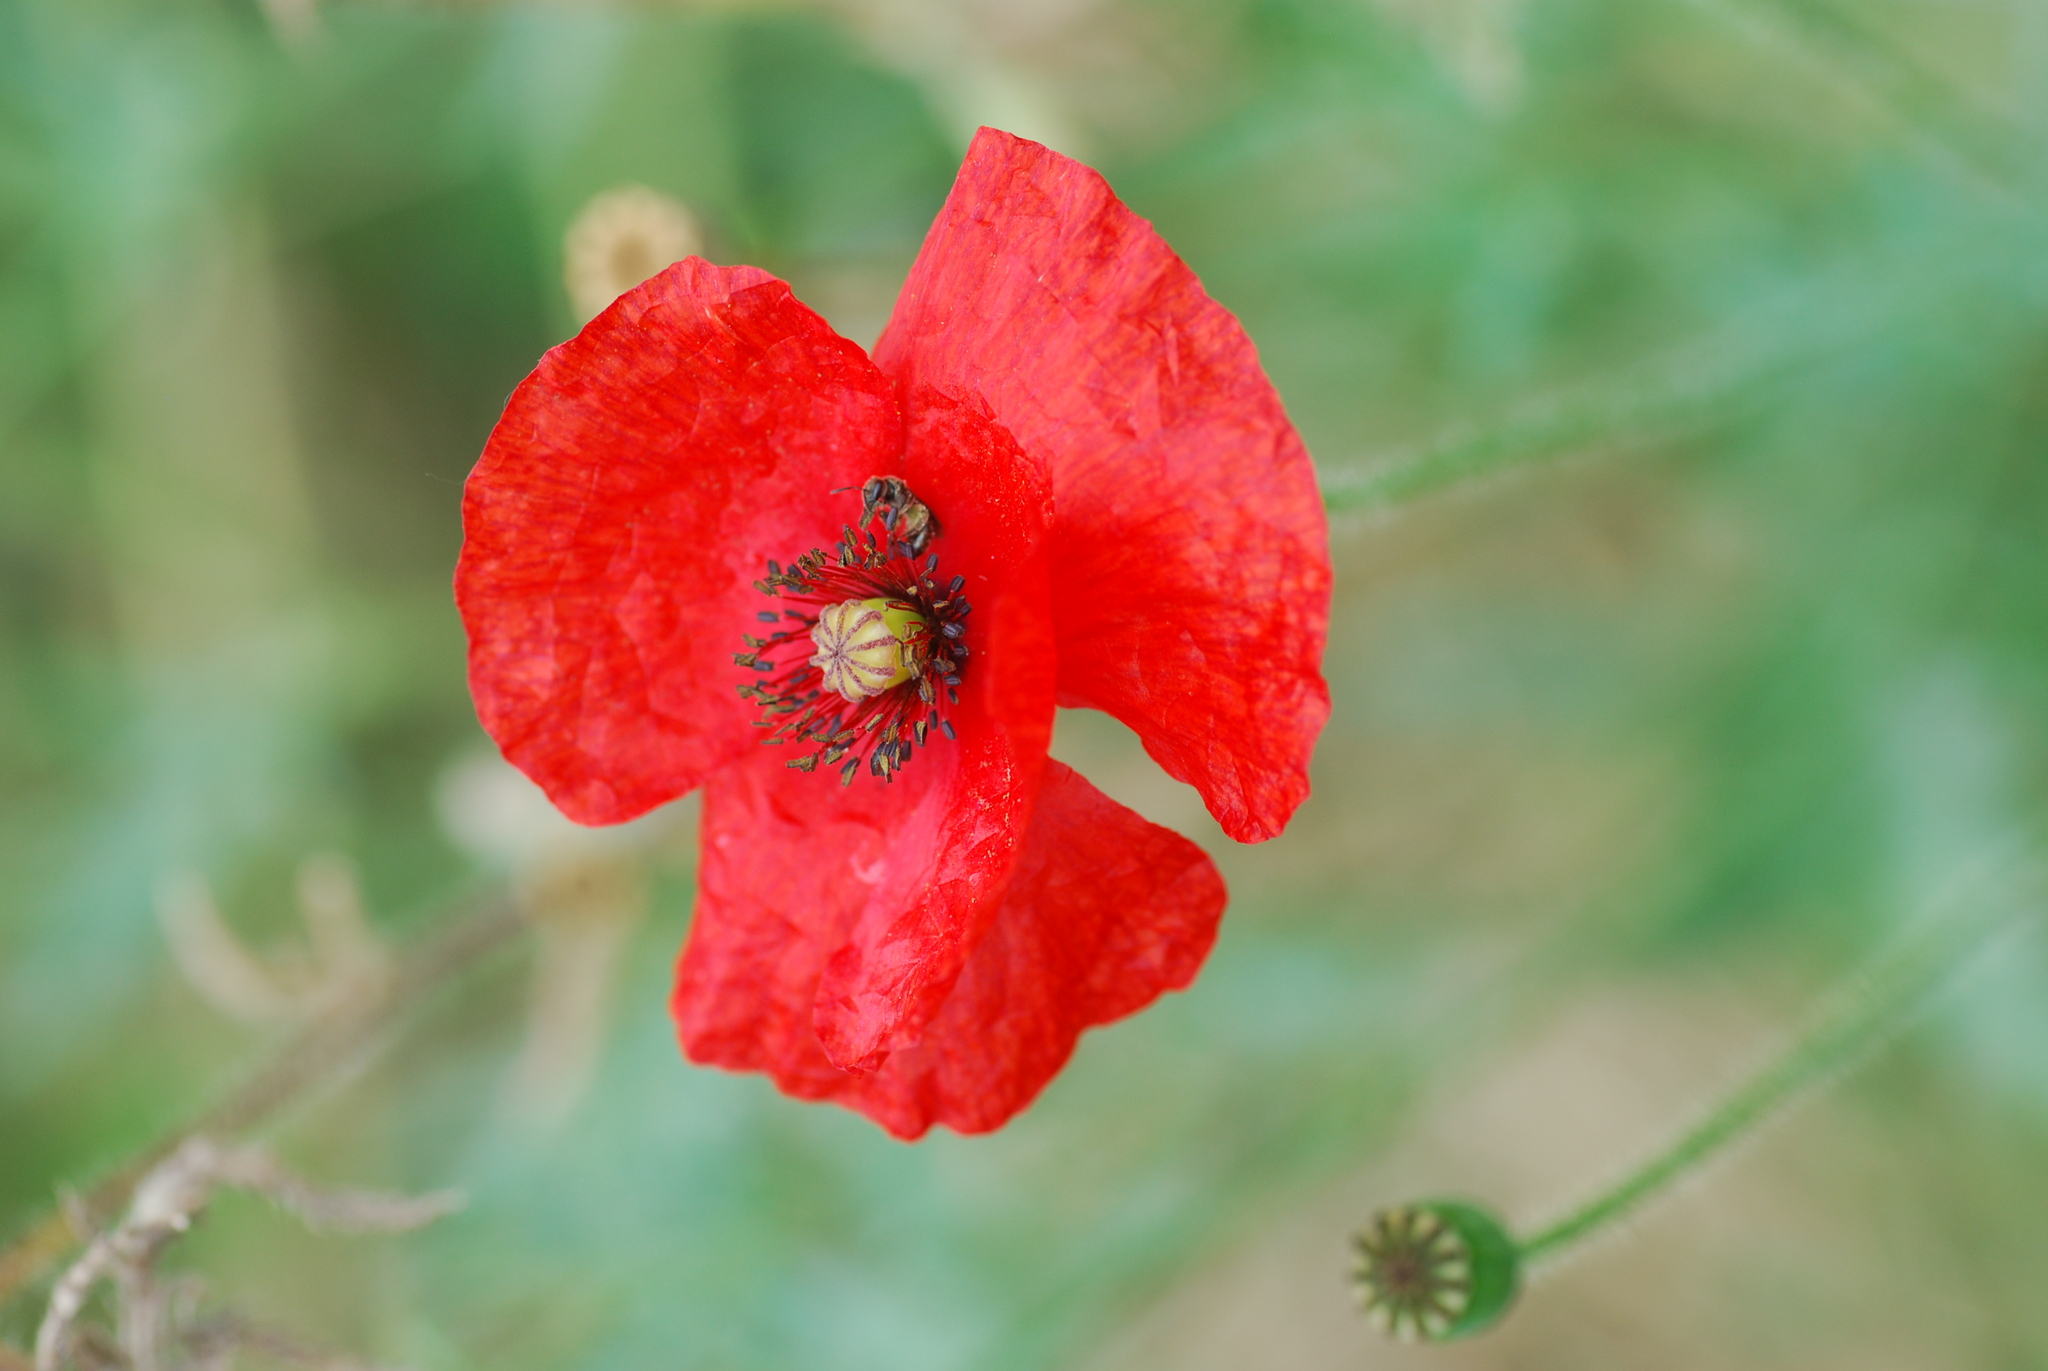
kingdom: Plantae
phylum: Tracheophyta
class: Magnoliopsida
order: Ranunculales
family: Papaveraceae
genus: Papaver
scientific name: Papaver rhoeas
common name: Corn poppy
